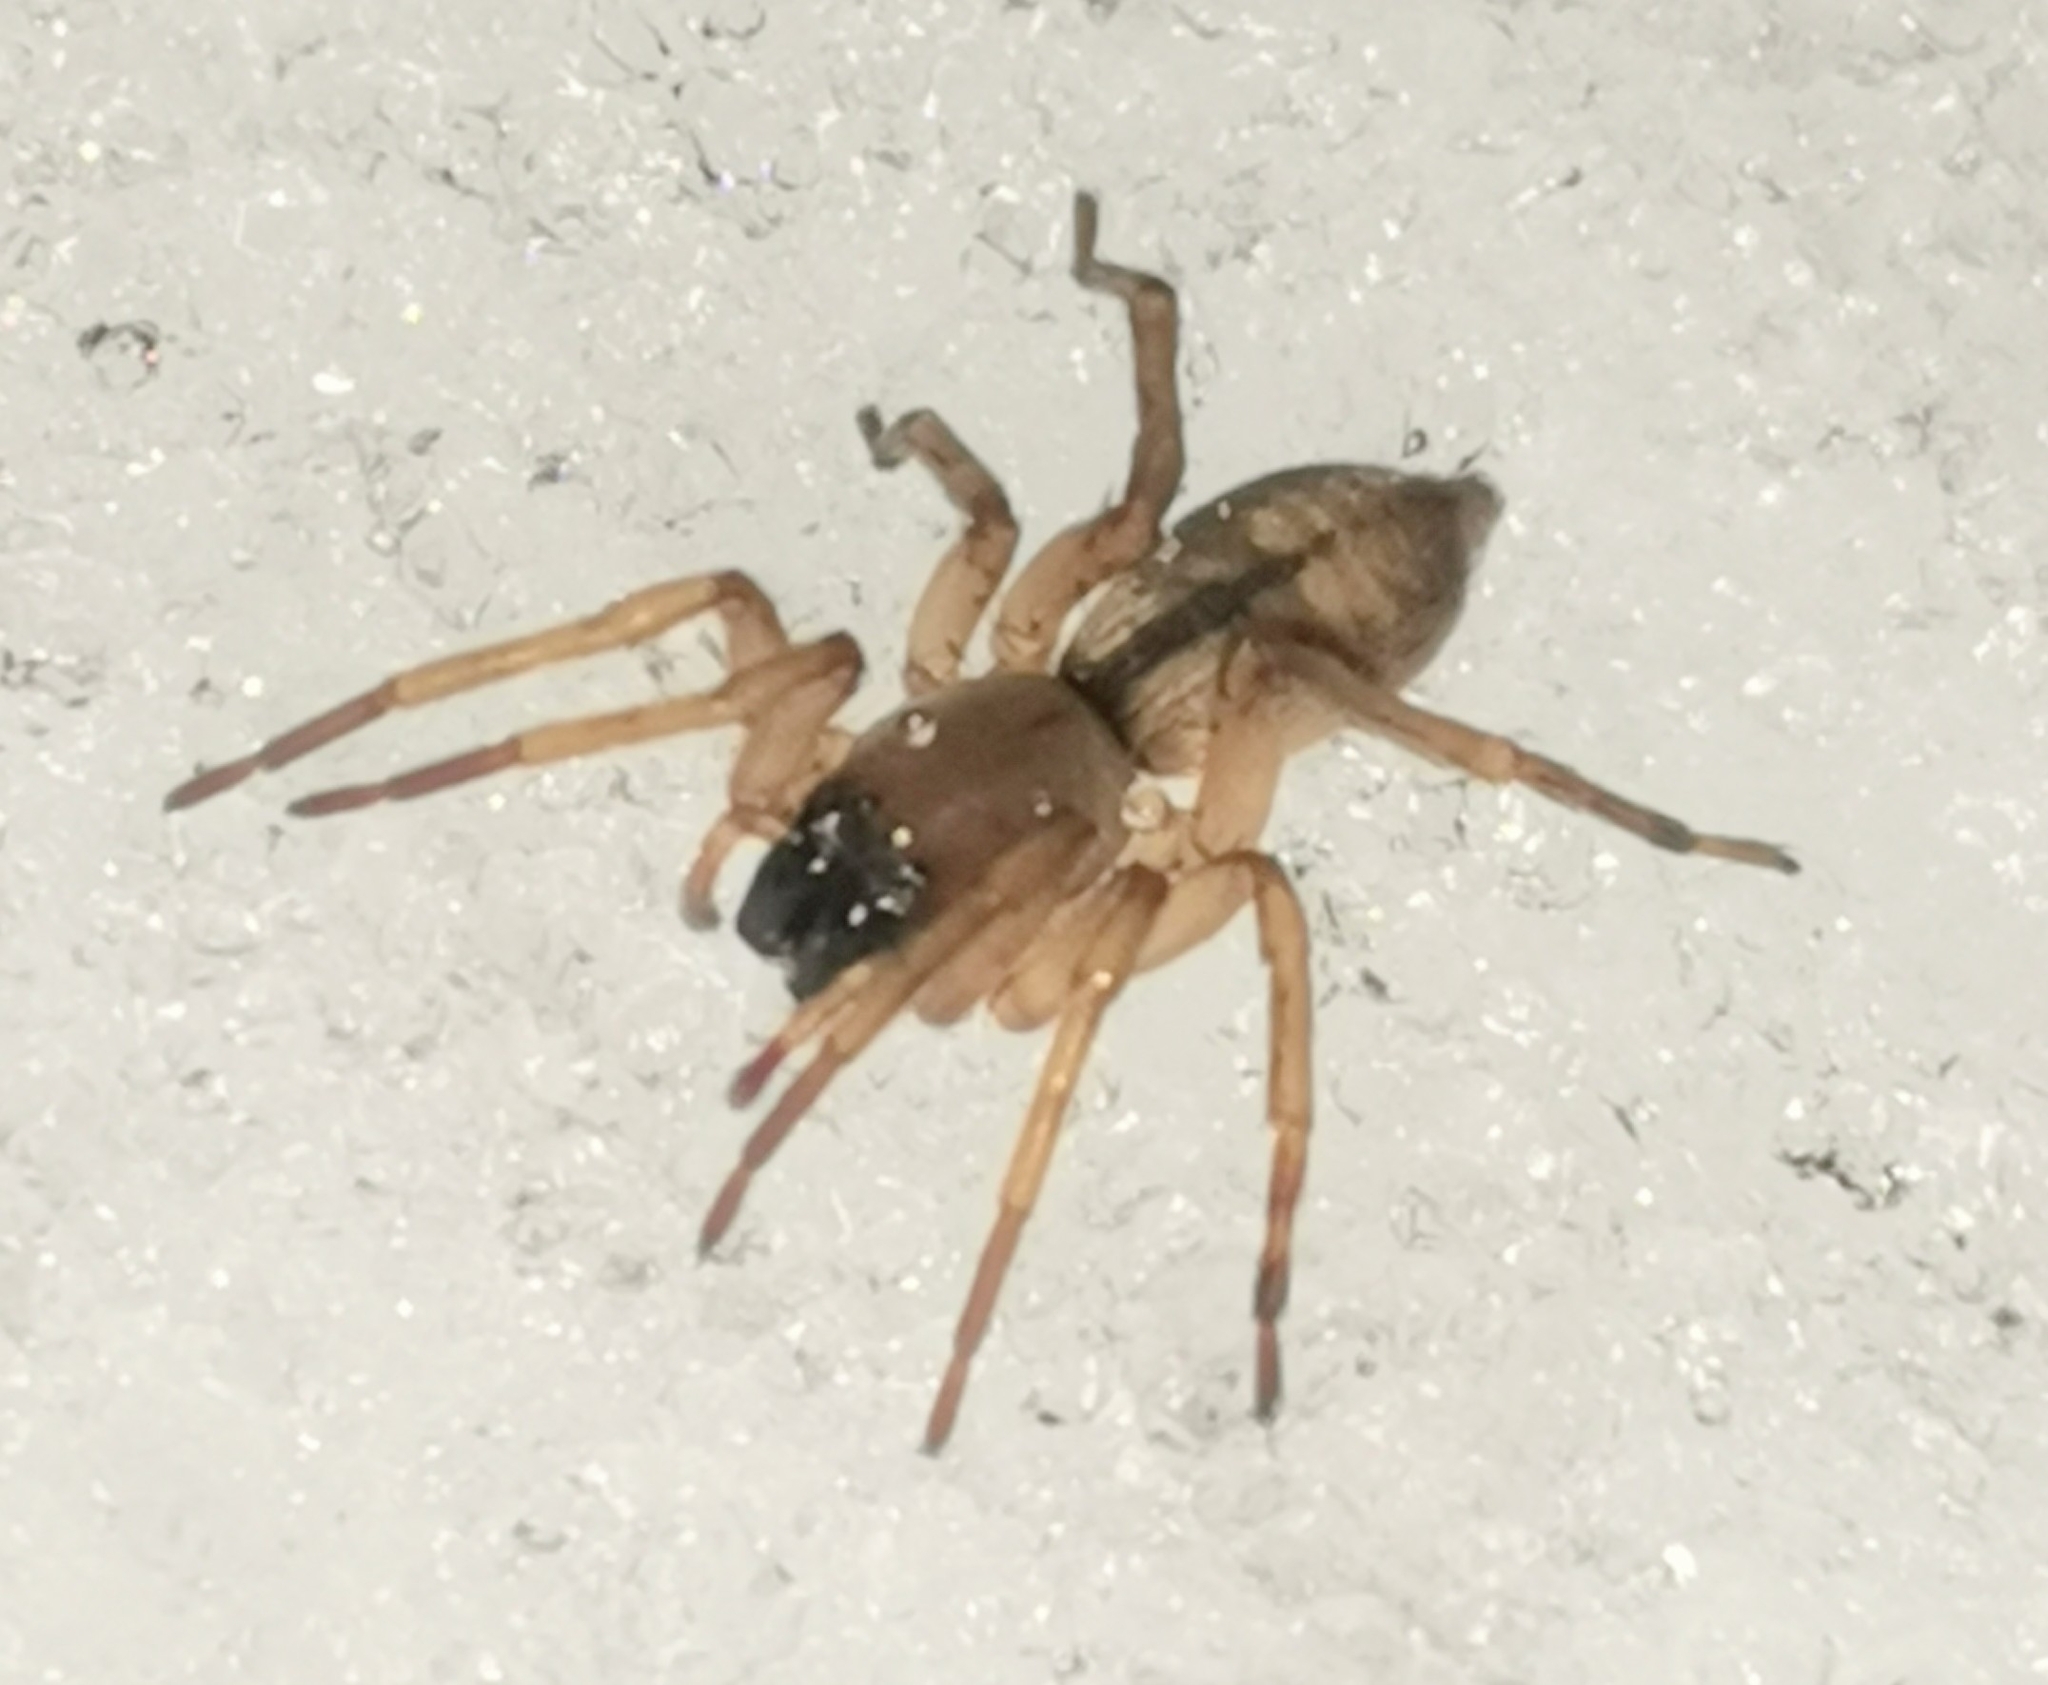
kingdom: Animalia
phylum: Arthropoda
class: Arachnida
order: Araneae
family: Clubionidae
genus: Clubiona
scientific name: Clubiona subsultans
